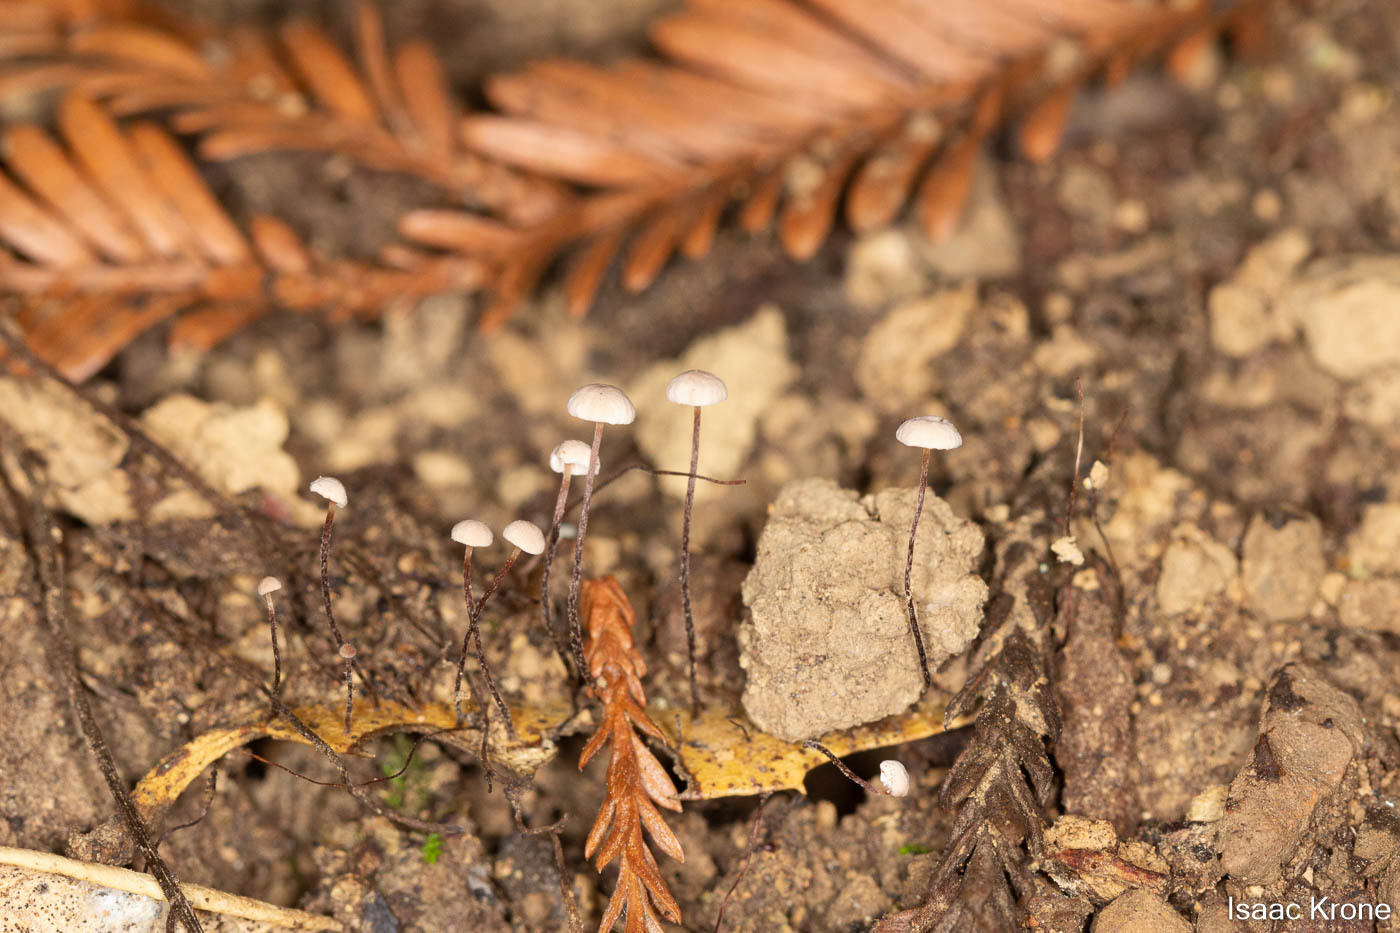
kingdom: Fungi
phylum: Basidiomycota
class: Agaricomycetes
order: Agaricales
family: Omphalotaceae
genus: Collybiopsis
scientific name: Collybiopsis quercophila
